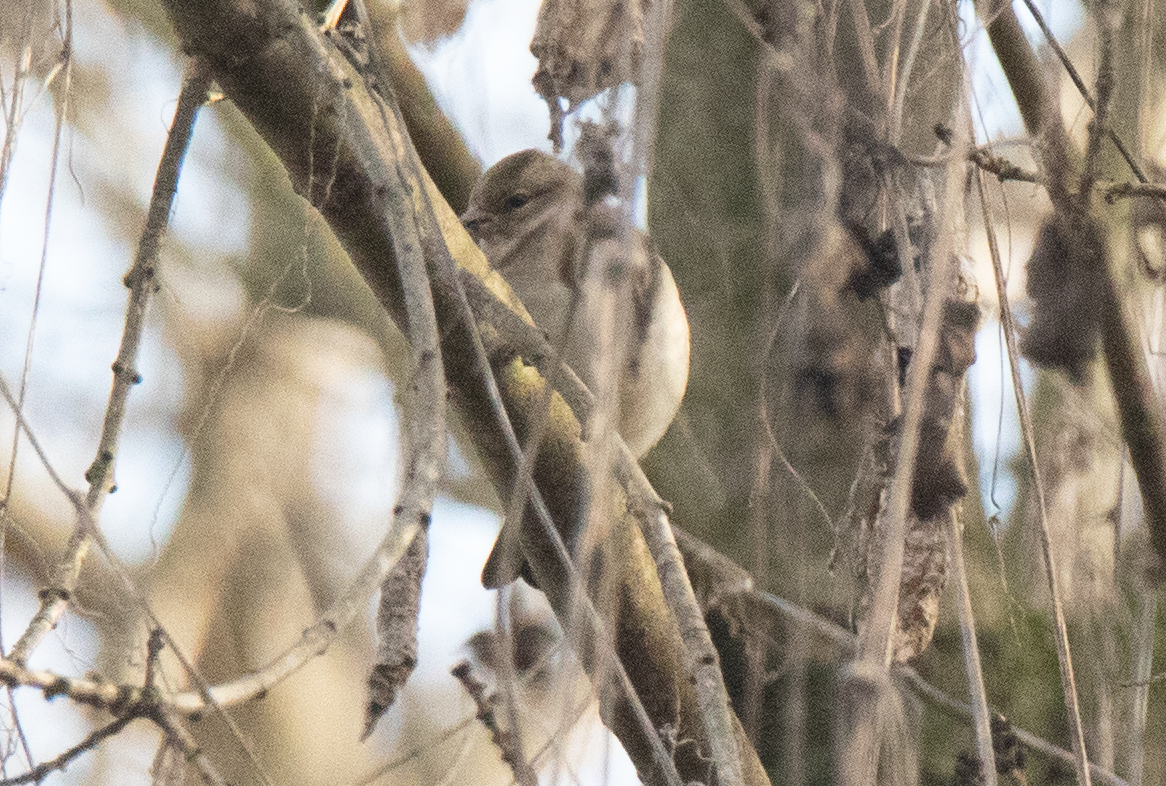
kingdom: Animalia
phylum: Chordata
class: Aves
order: Passeriformes
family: Fringillidae
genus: Fringilla
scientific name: Fringilla coelebs
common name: Common chaffinch
